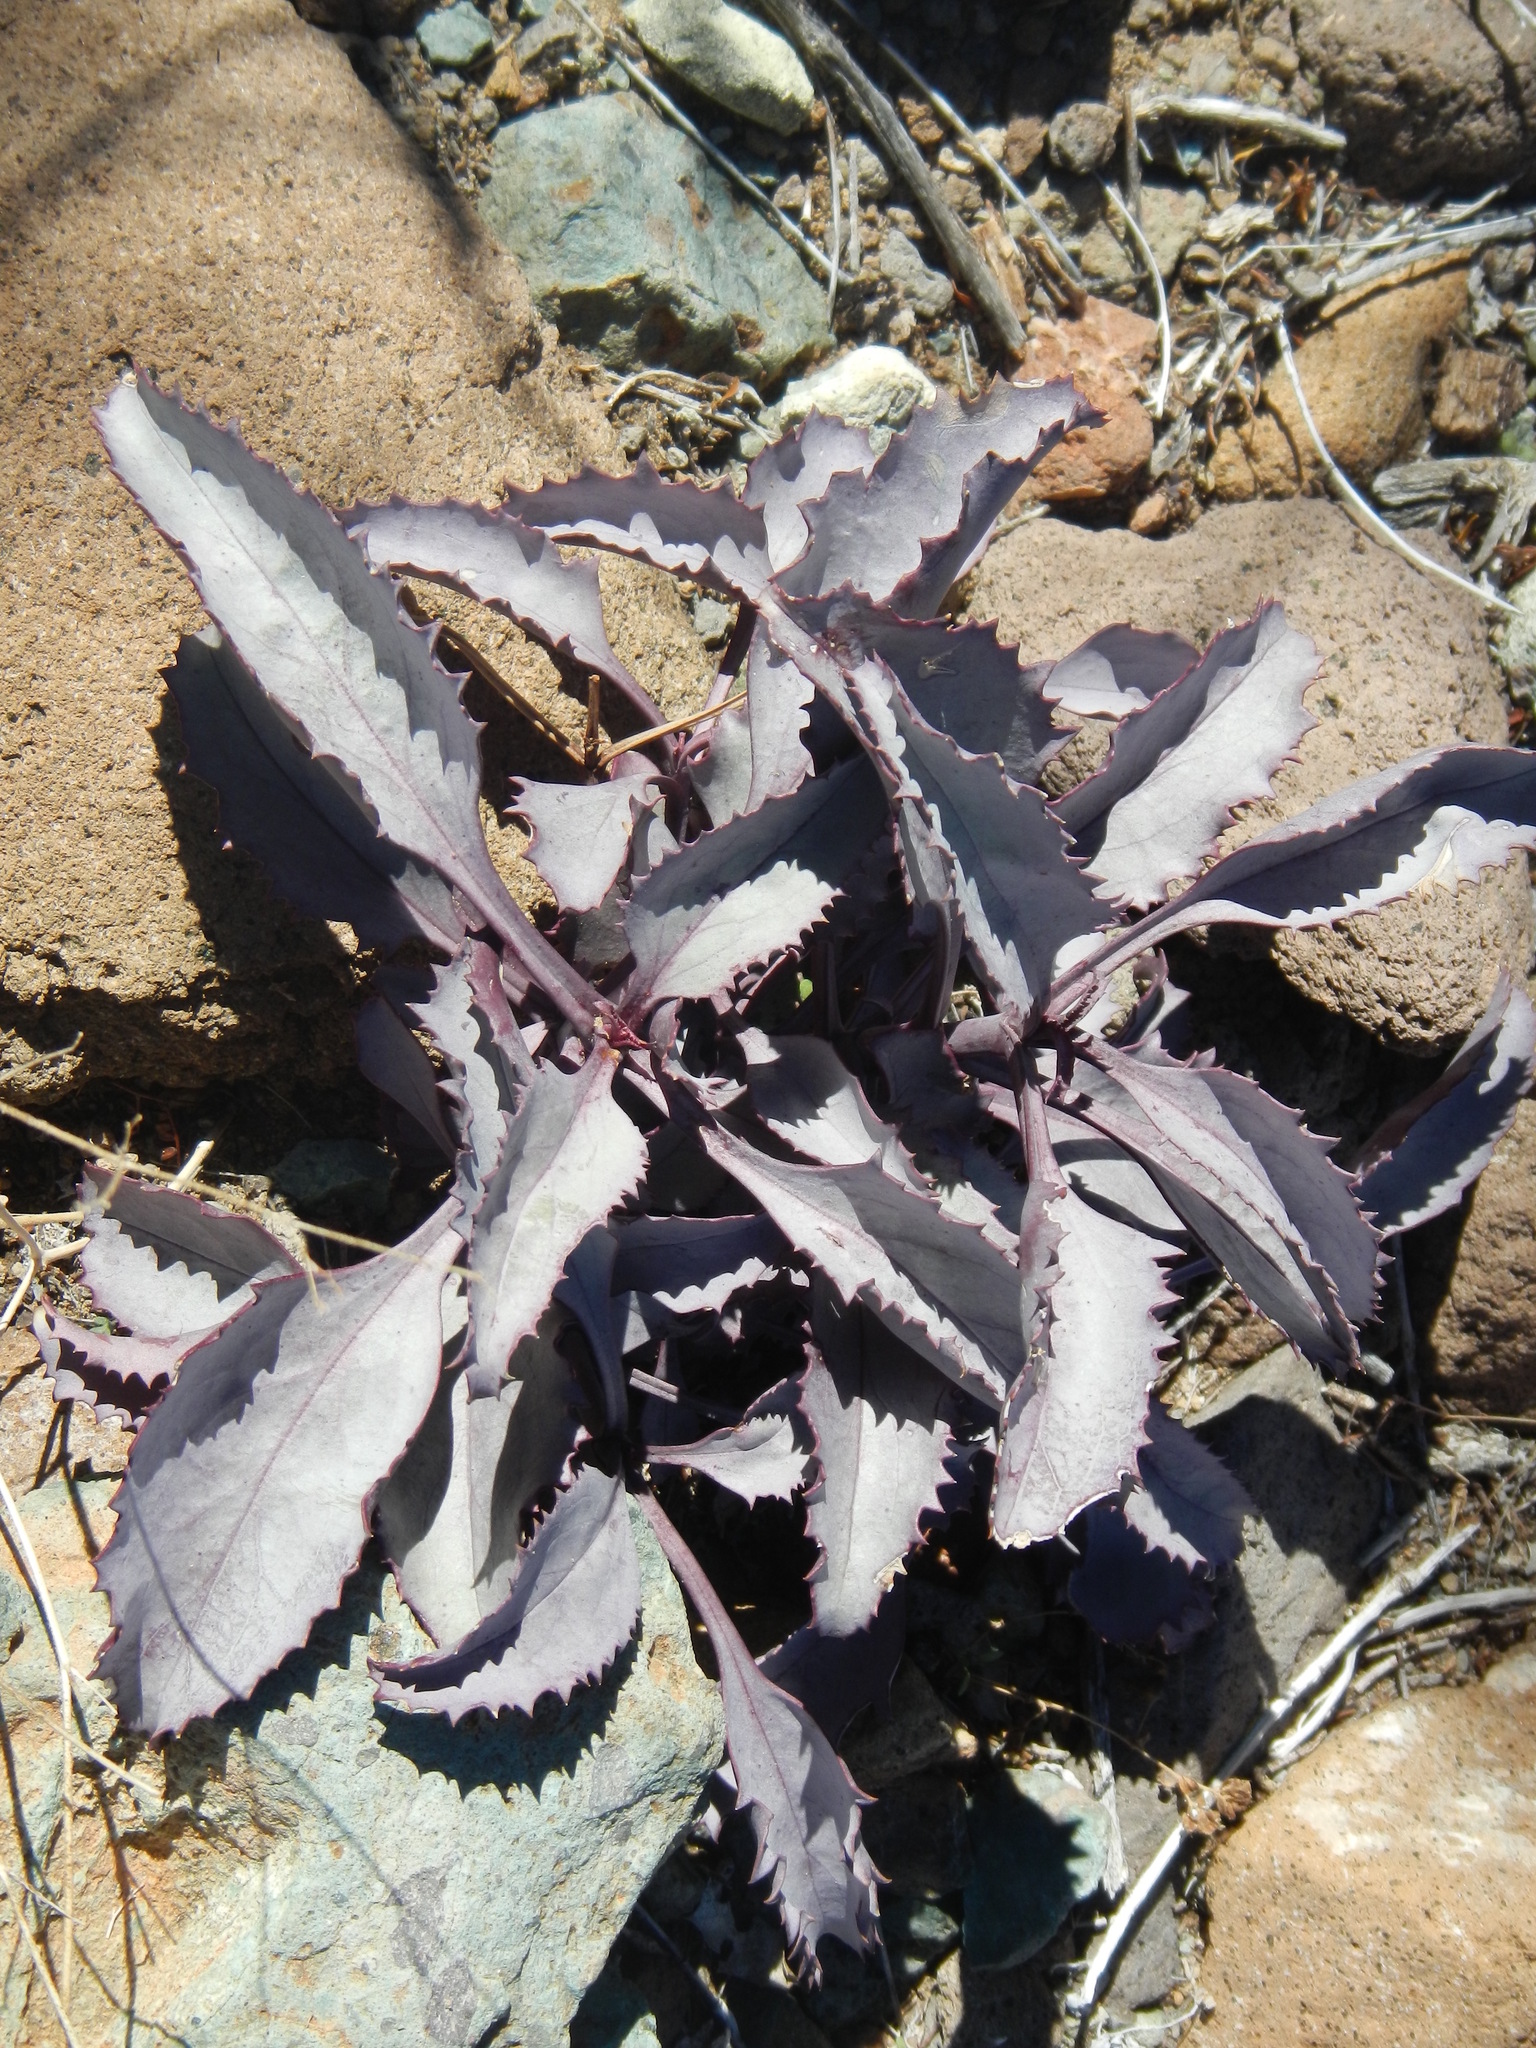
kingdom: Plantae
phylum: Tracheophyta
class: Magnoliopsida
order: Lamiales
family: Plantaginaceae
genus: Penstemon
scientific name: Penstemon palmeri
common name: Palmer penstemon
